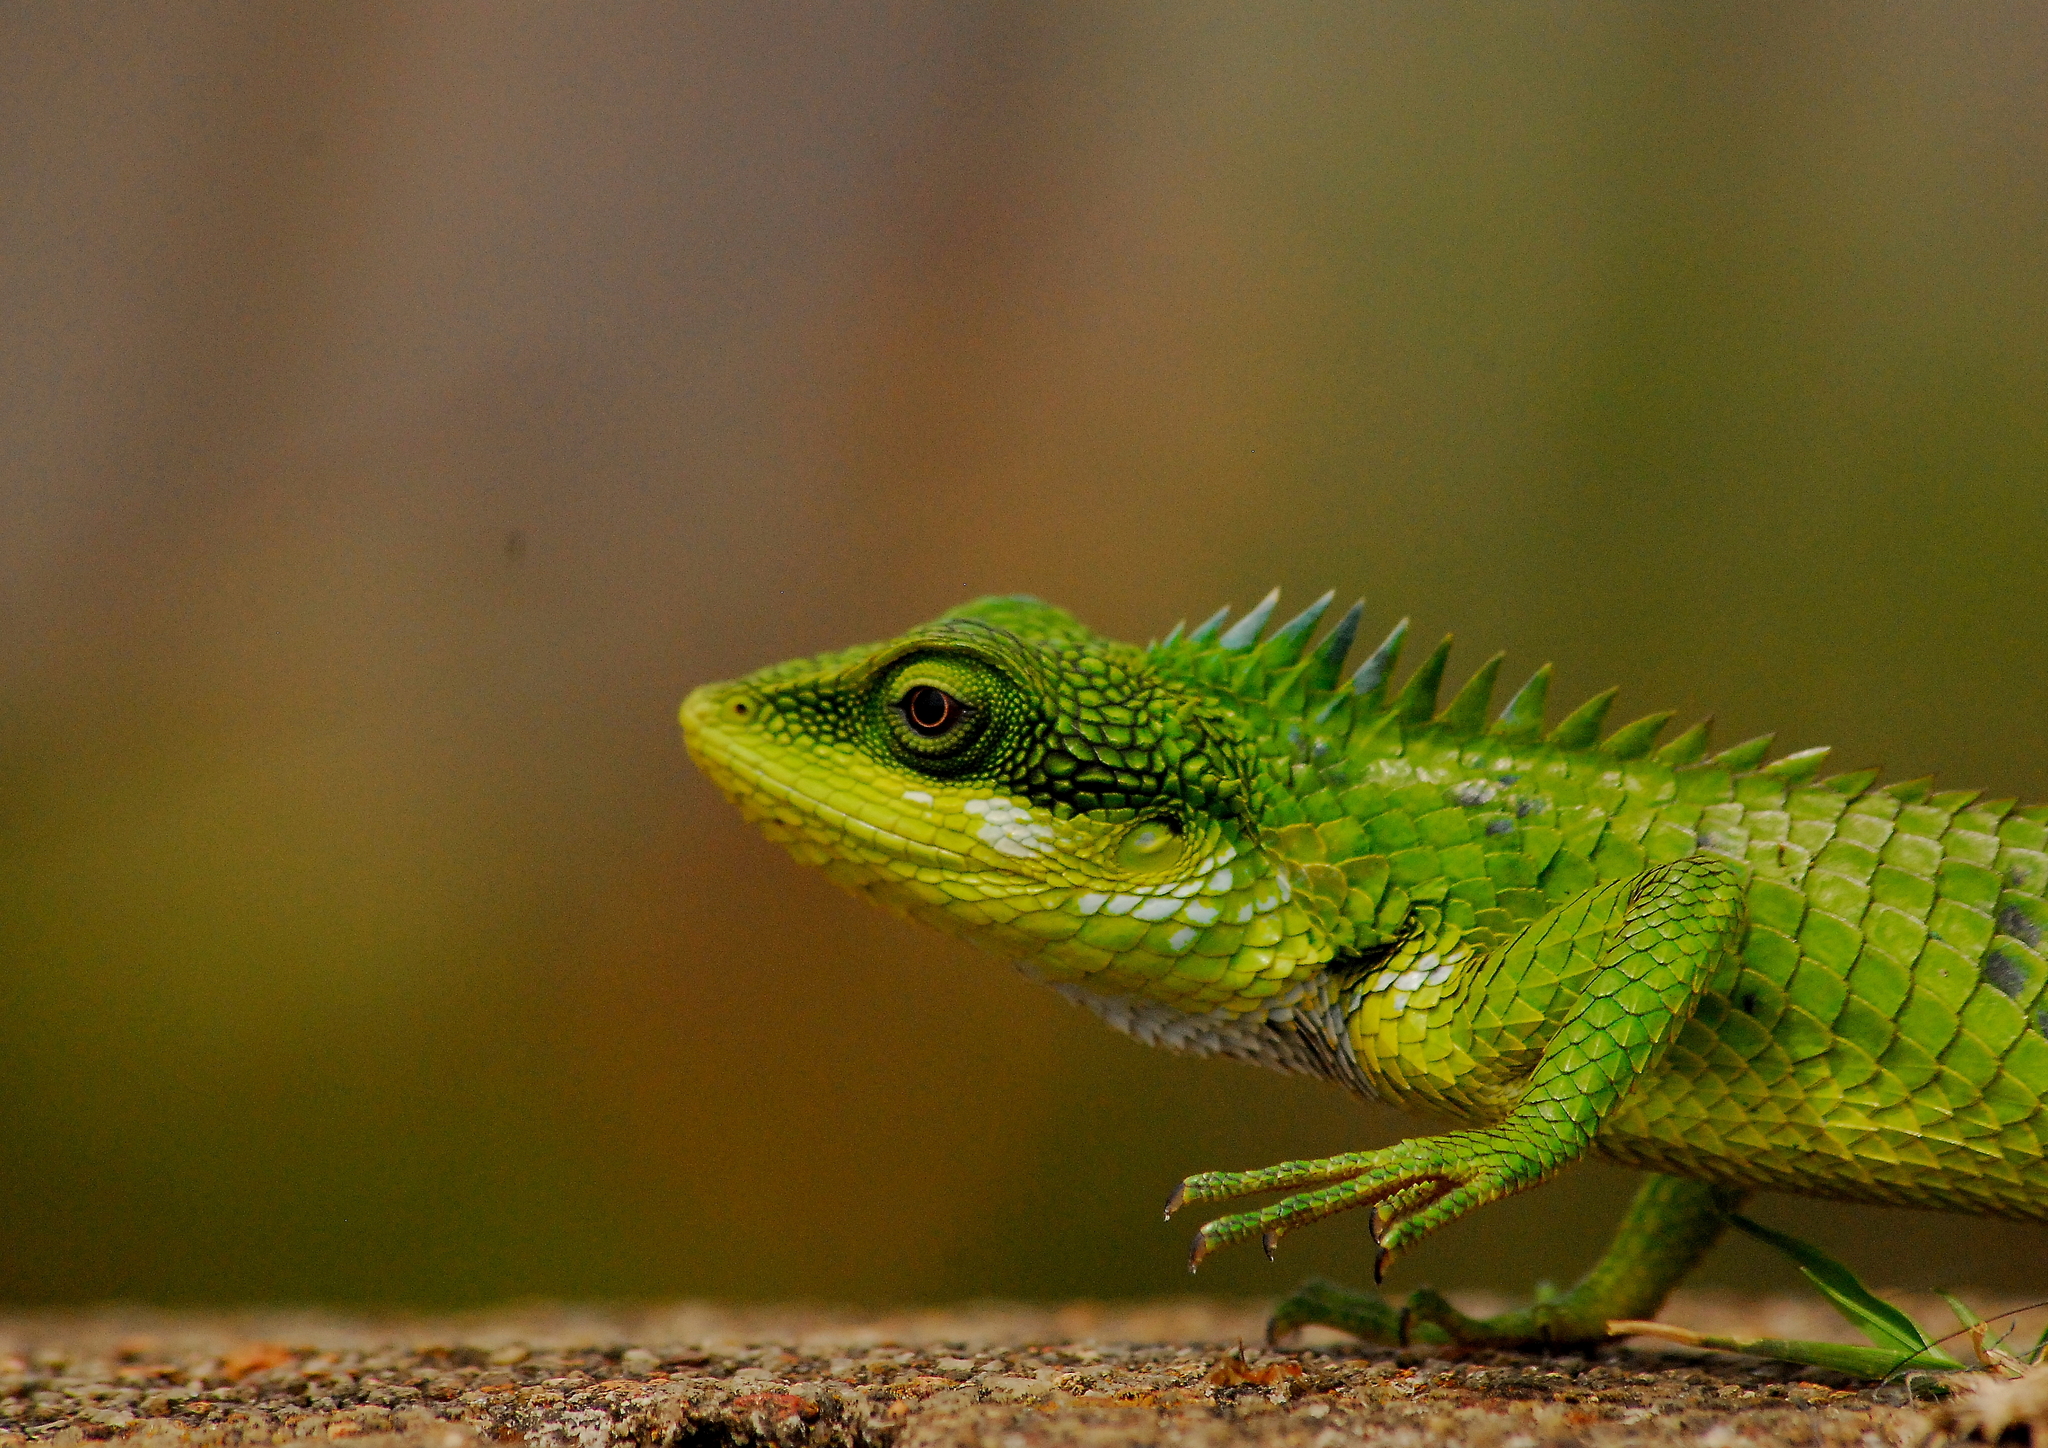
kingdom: Animalia
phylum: Chordata
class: Squamata
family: Agamidae
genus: Calotes
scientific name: Calotes grandisquamis
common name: Big scaled variable lizard
